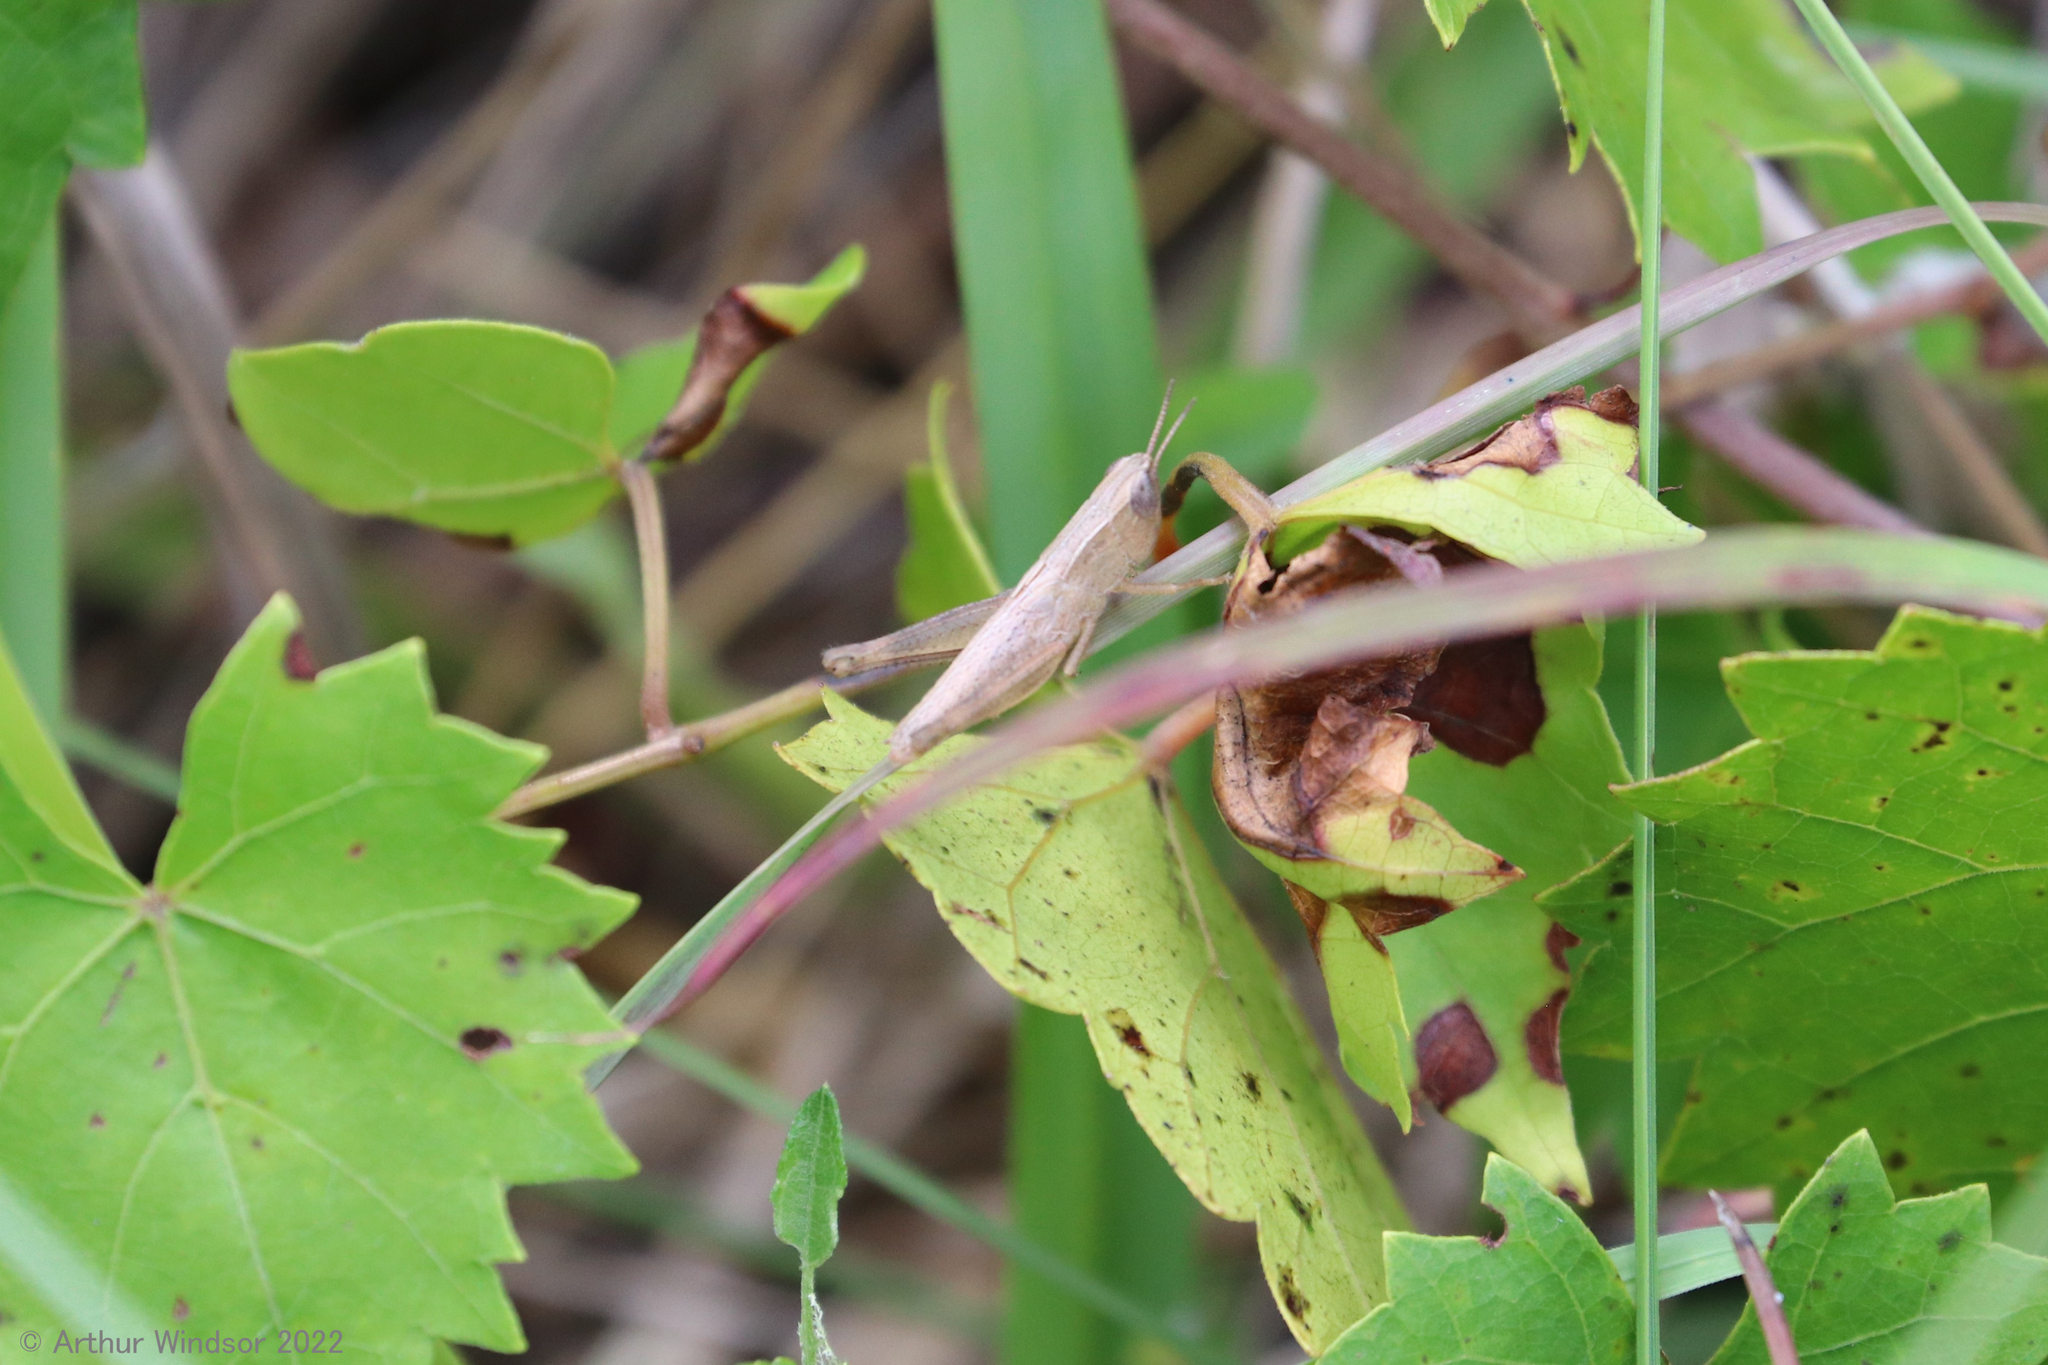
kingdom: Animalia
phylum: Arthropoda
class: Insecta
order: Orthoptera
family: Acrididae
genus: Dichromorpha
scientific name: Dichromorpha elegans
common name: Elegant grasshopper
